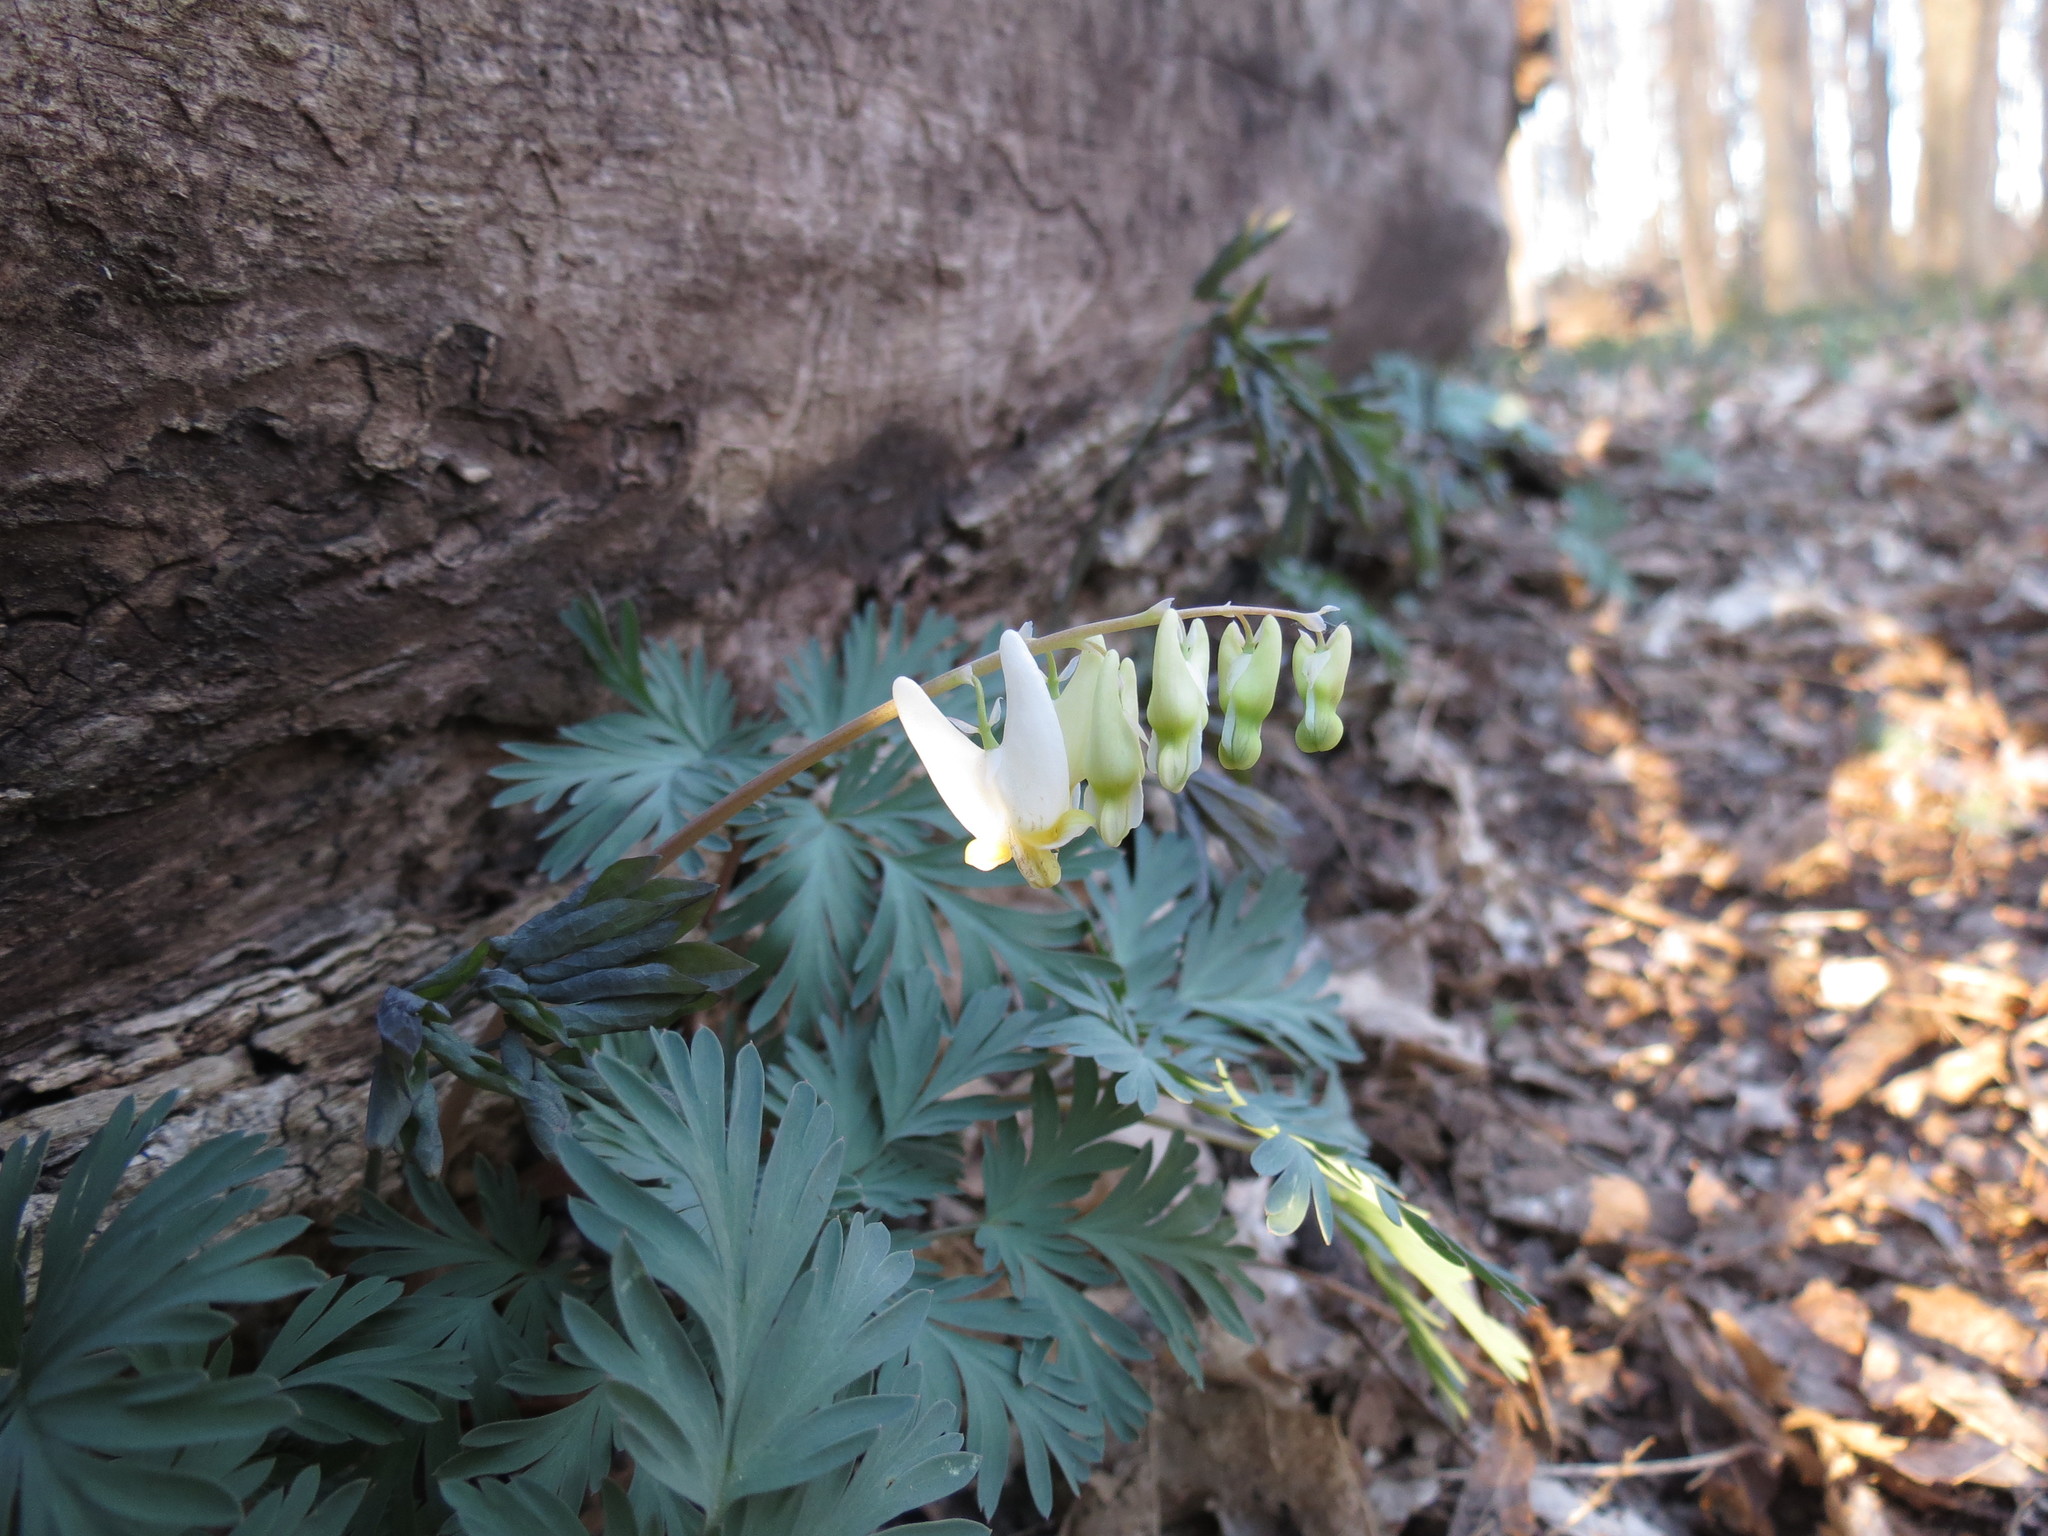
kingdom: Plantae
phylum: Tracheophyta
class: Magnoliopsida
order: Ranunculales
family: Papaveraceae
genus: Dicentra
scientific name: Dicentra cucullaria
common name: Dutchman's breeches
